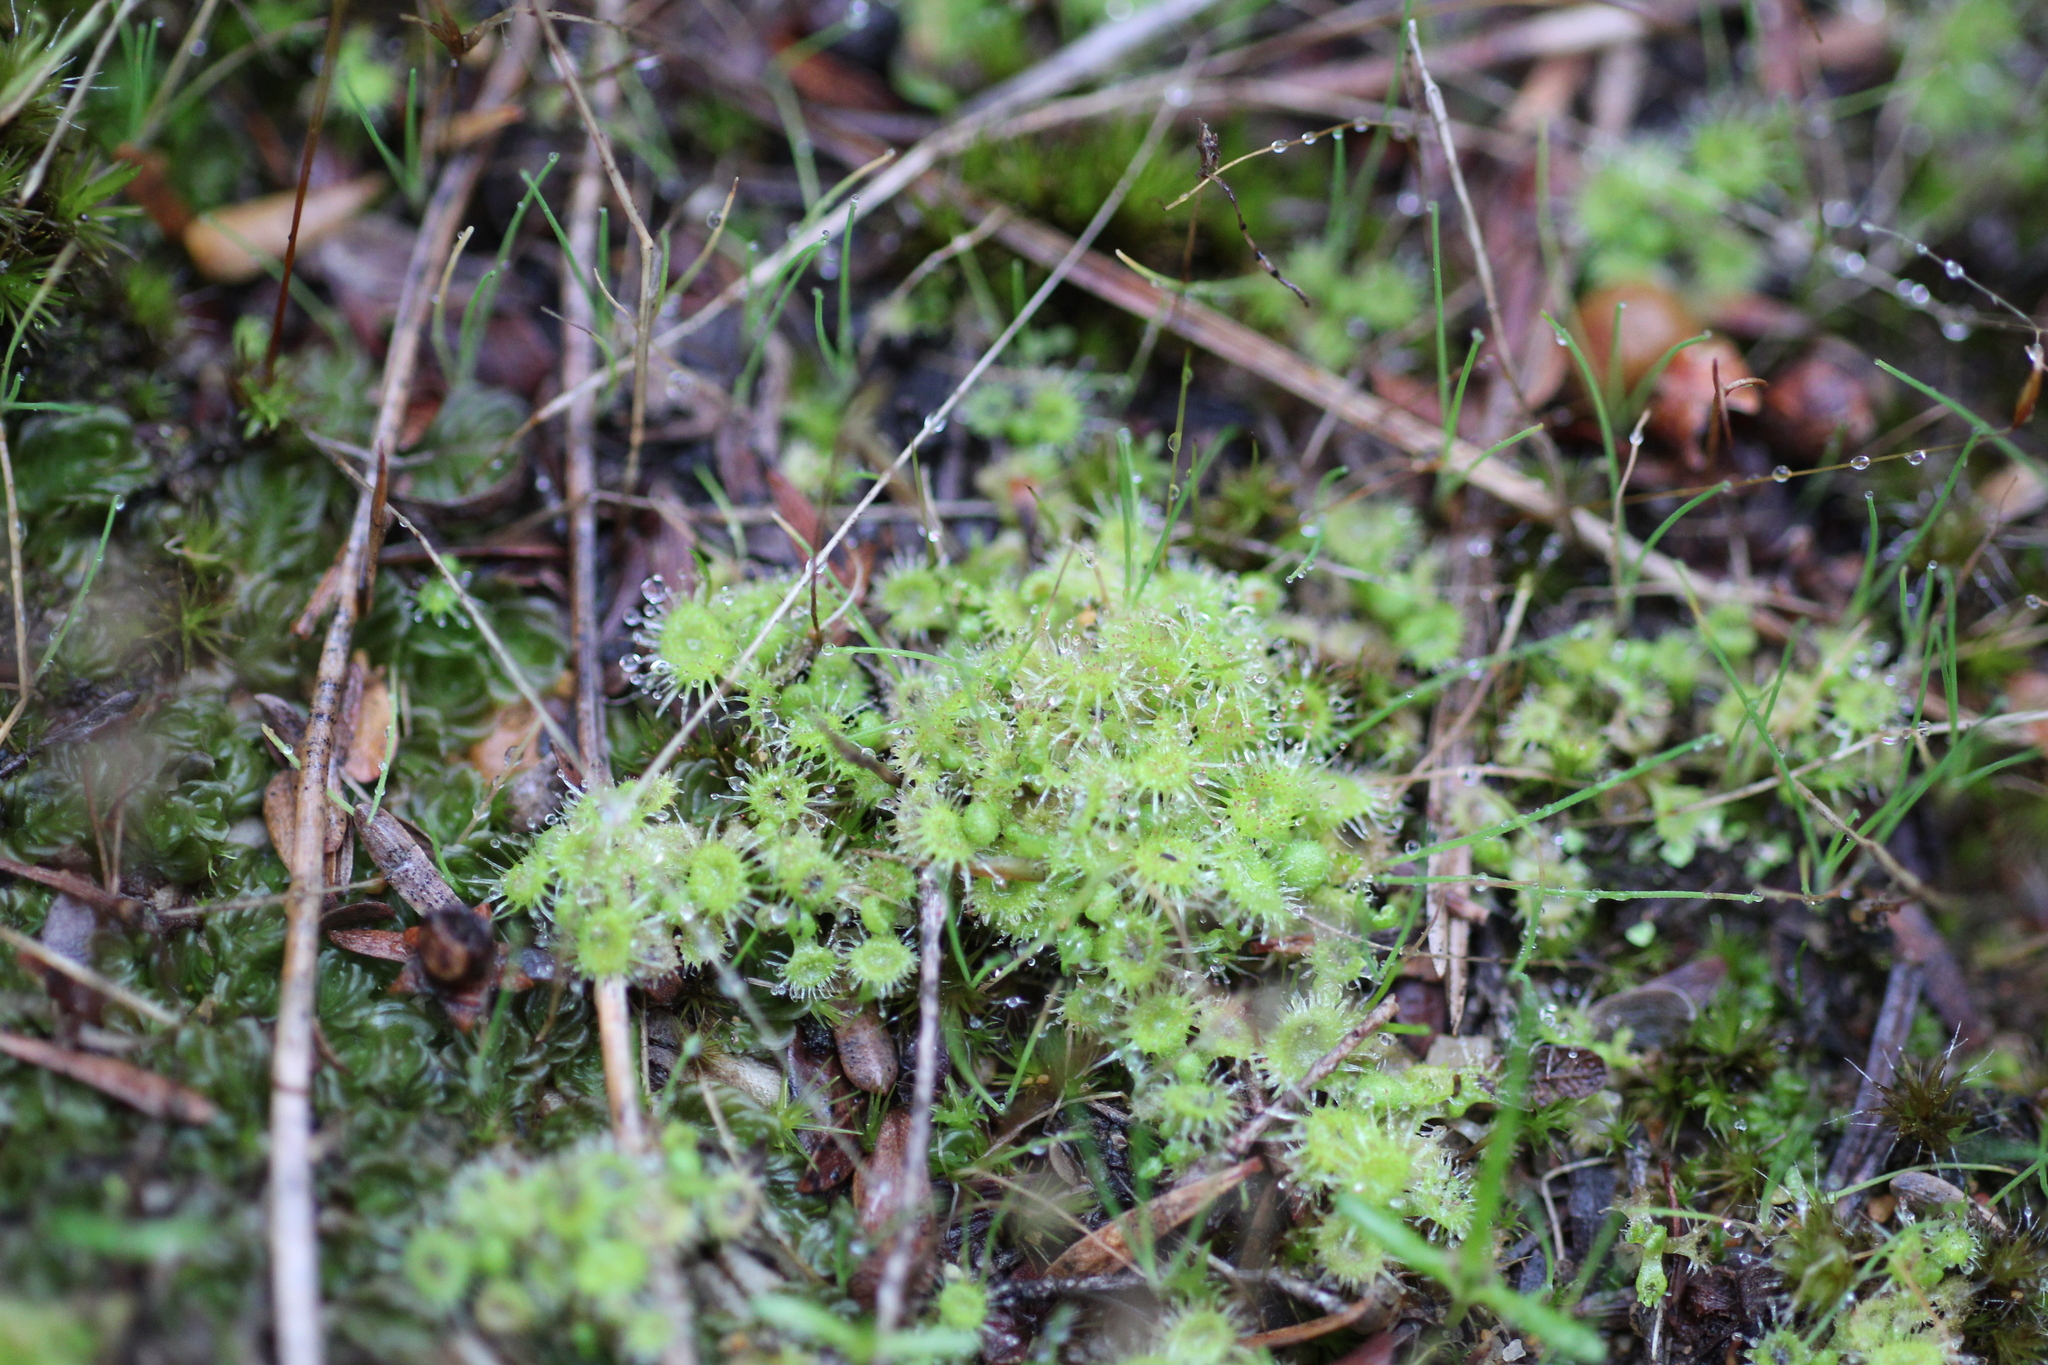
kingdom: Plantae
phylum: Tracheophyta
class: Magnoliopsida
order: Caryophyllales
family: Droseraceae
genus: Drosera
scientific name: Drosera glanduligera
